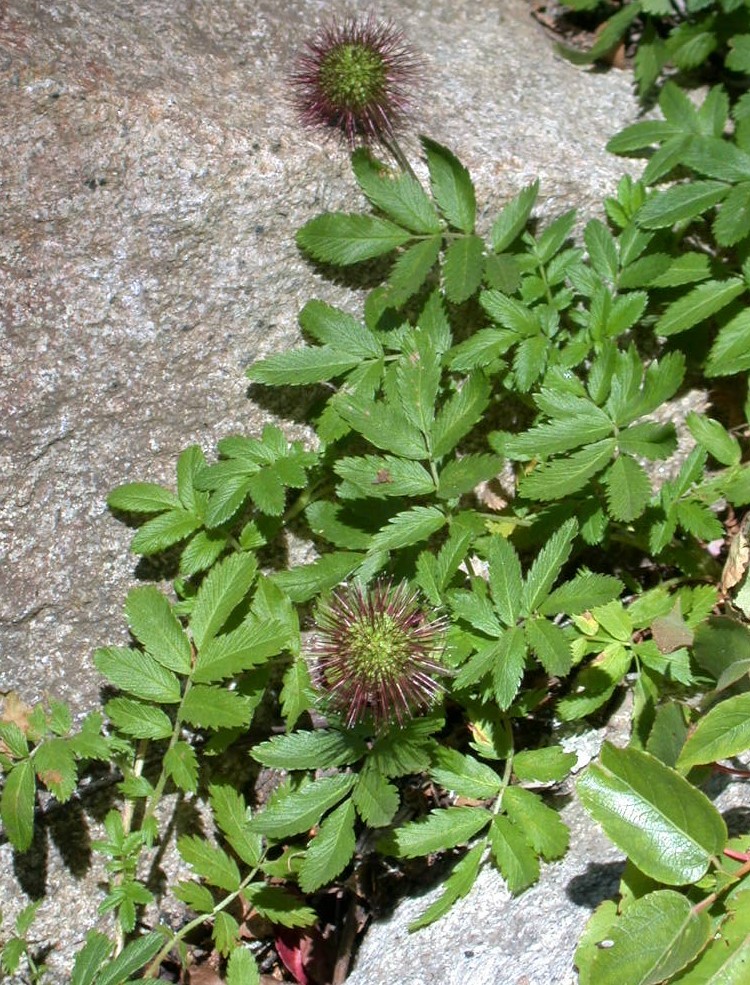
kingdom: Plantae
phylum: Tracheophyta
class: Magnoliopsida
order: Rosales
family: Rosaceae
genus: Acaena
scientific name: Acaena ovalifolia
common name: Two-spined acaena
